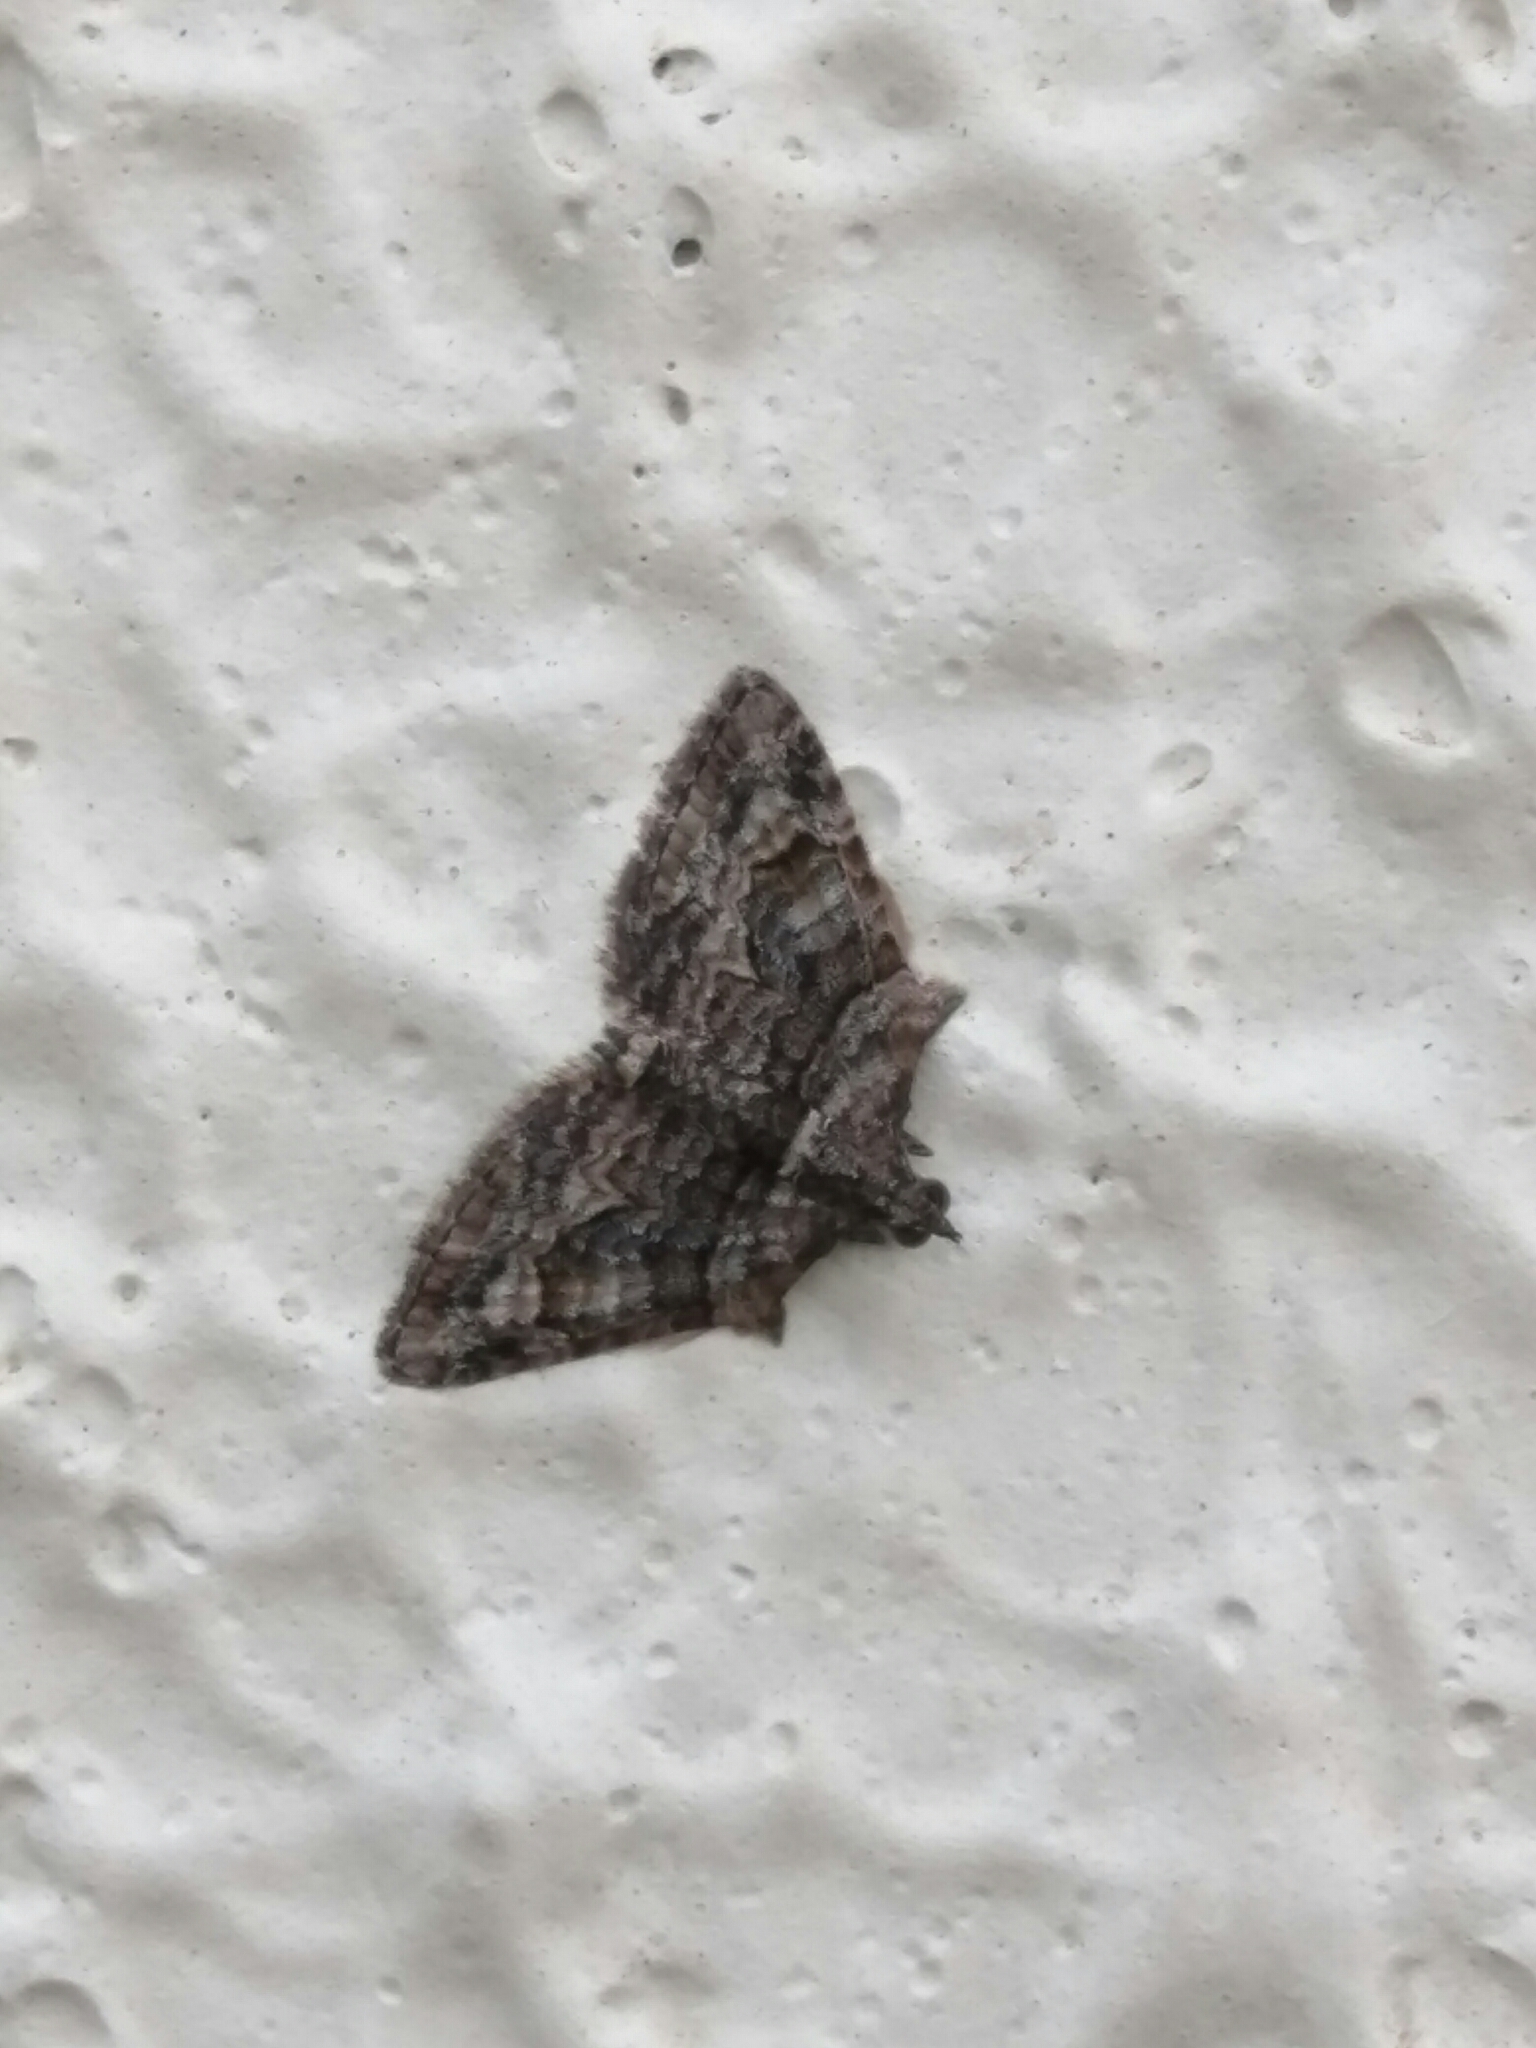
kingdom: Animalia
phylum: Arthropoda
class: Insecta
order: Lepidoptera
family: Geometridae
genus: Phrissogonus
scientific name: Phrissogonus laticostata
